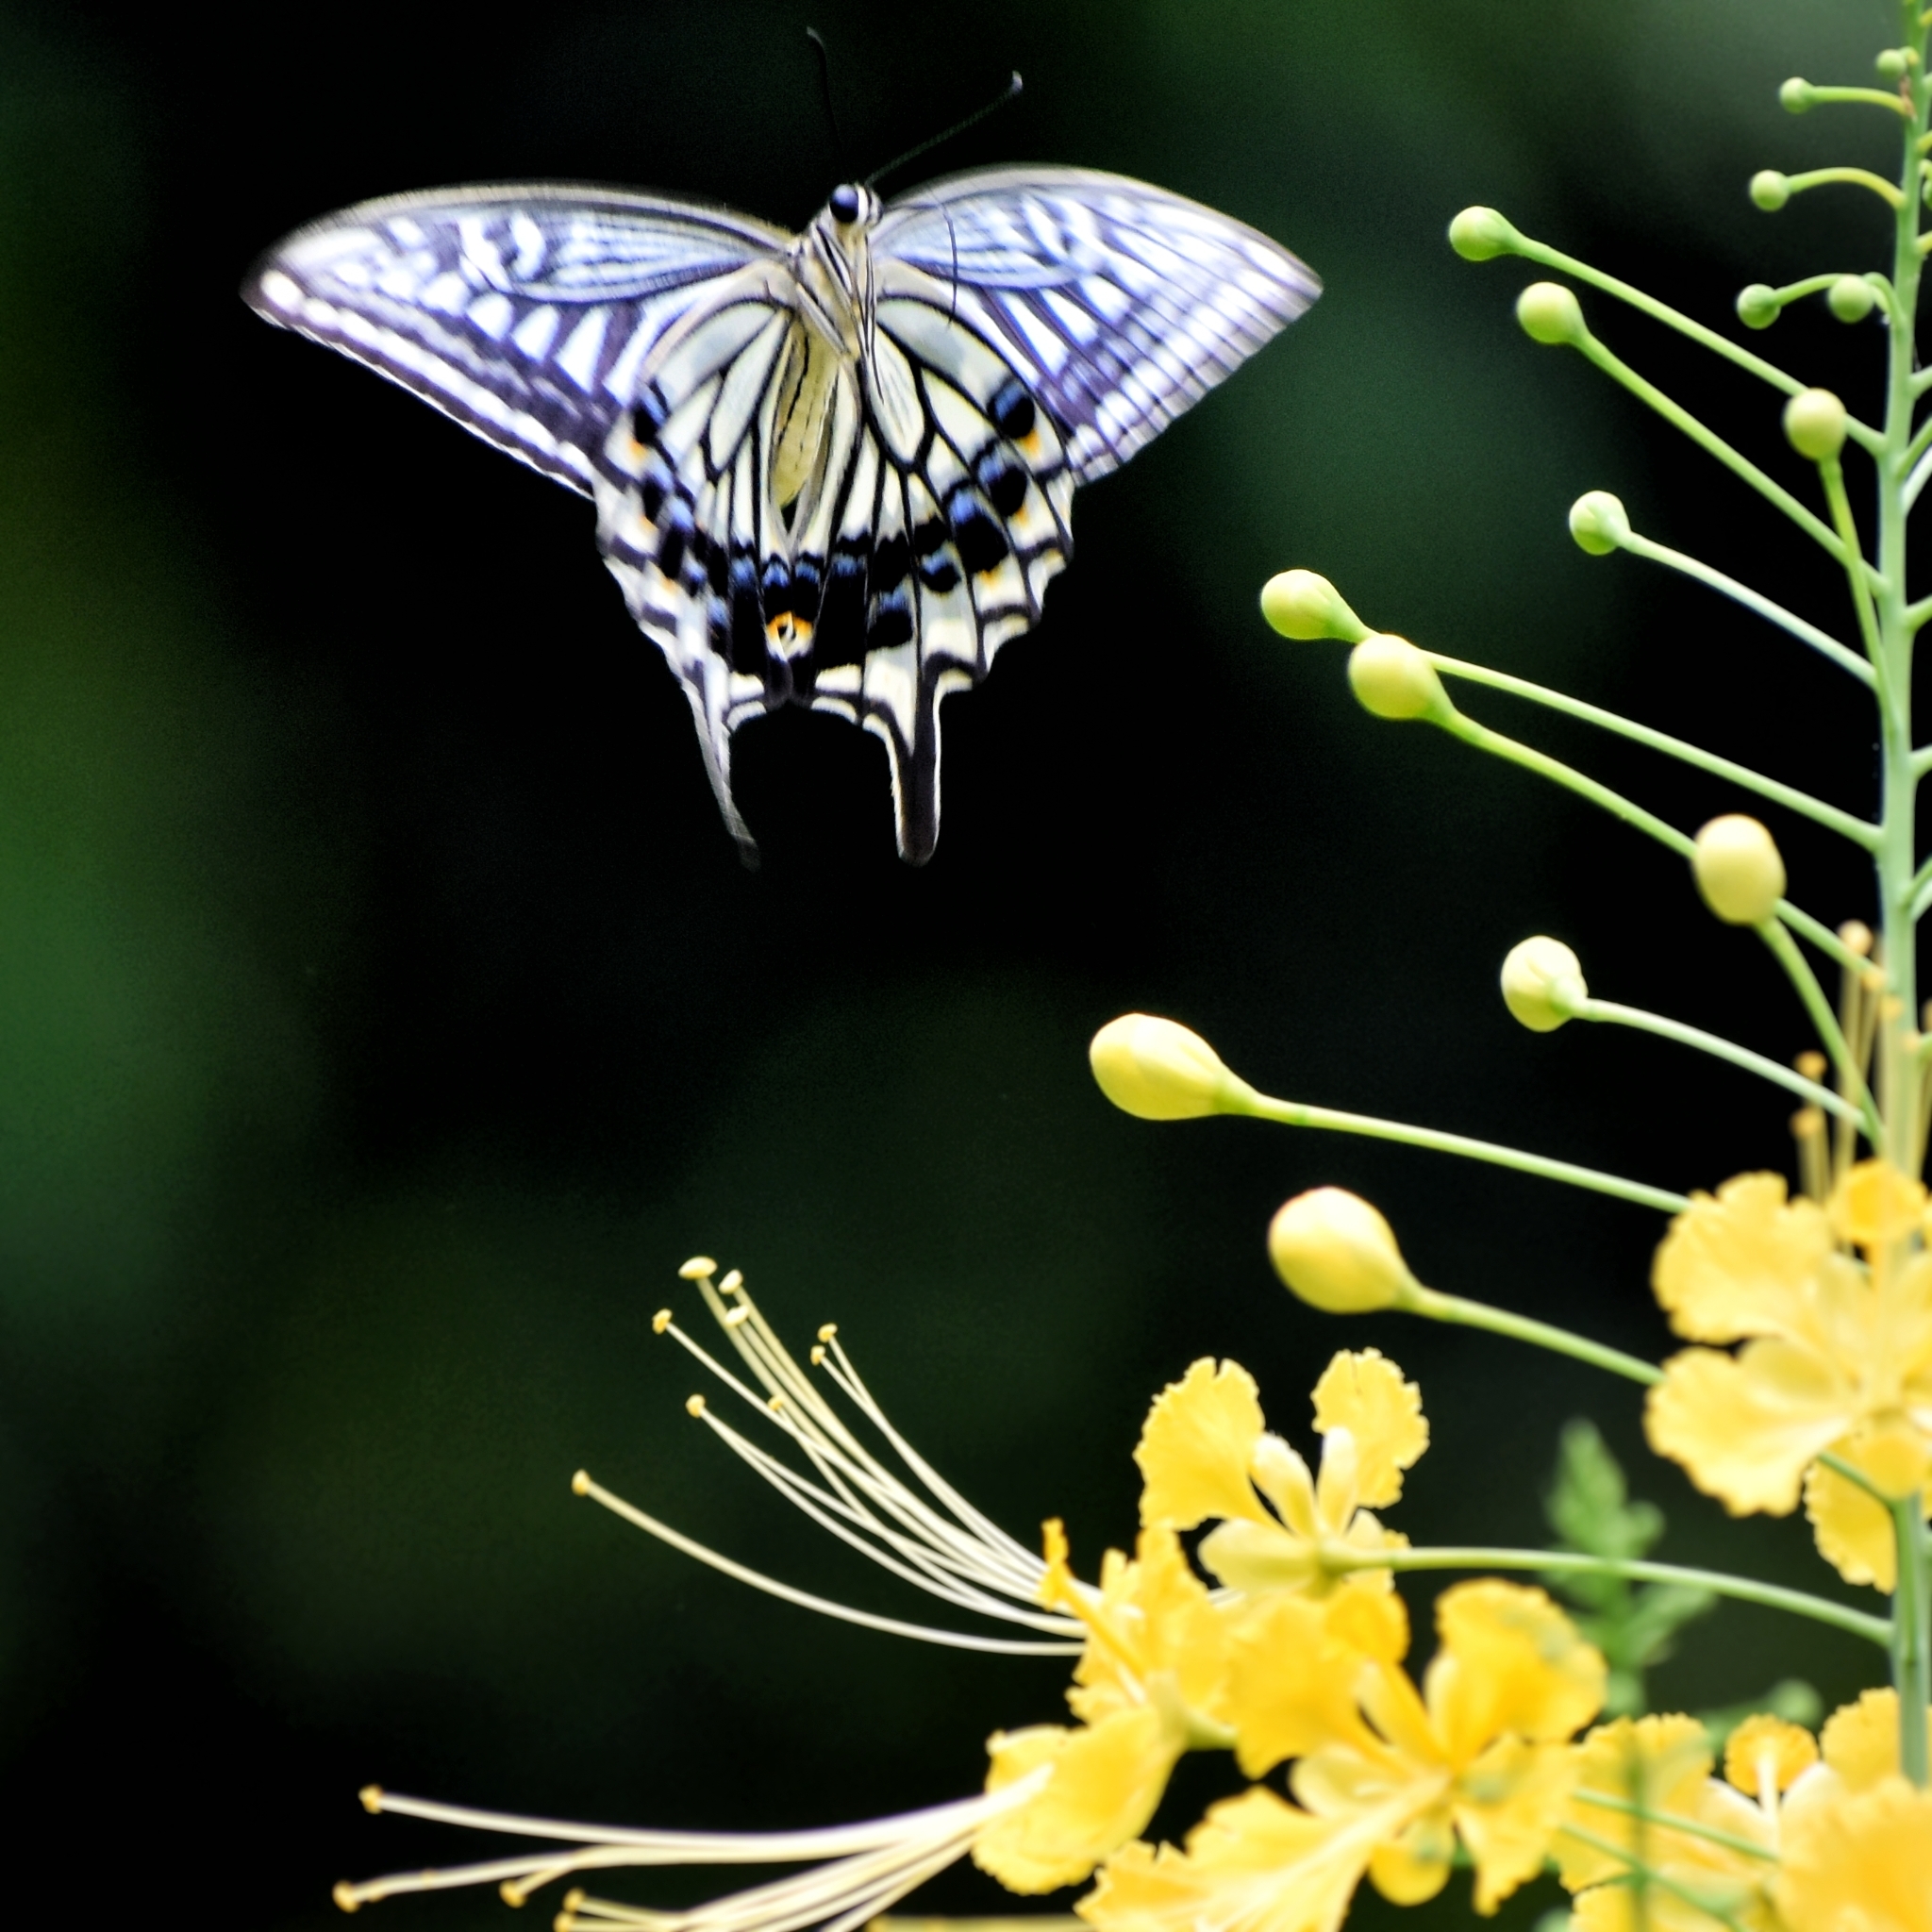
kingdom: Animalia
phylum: Arthropoda
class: Insecta
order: Lepidoptera
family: Papilionidae
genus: Papilio
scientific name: Papilio xuthus
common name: Asian swallowtail
